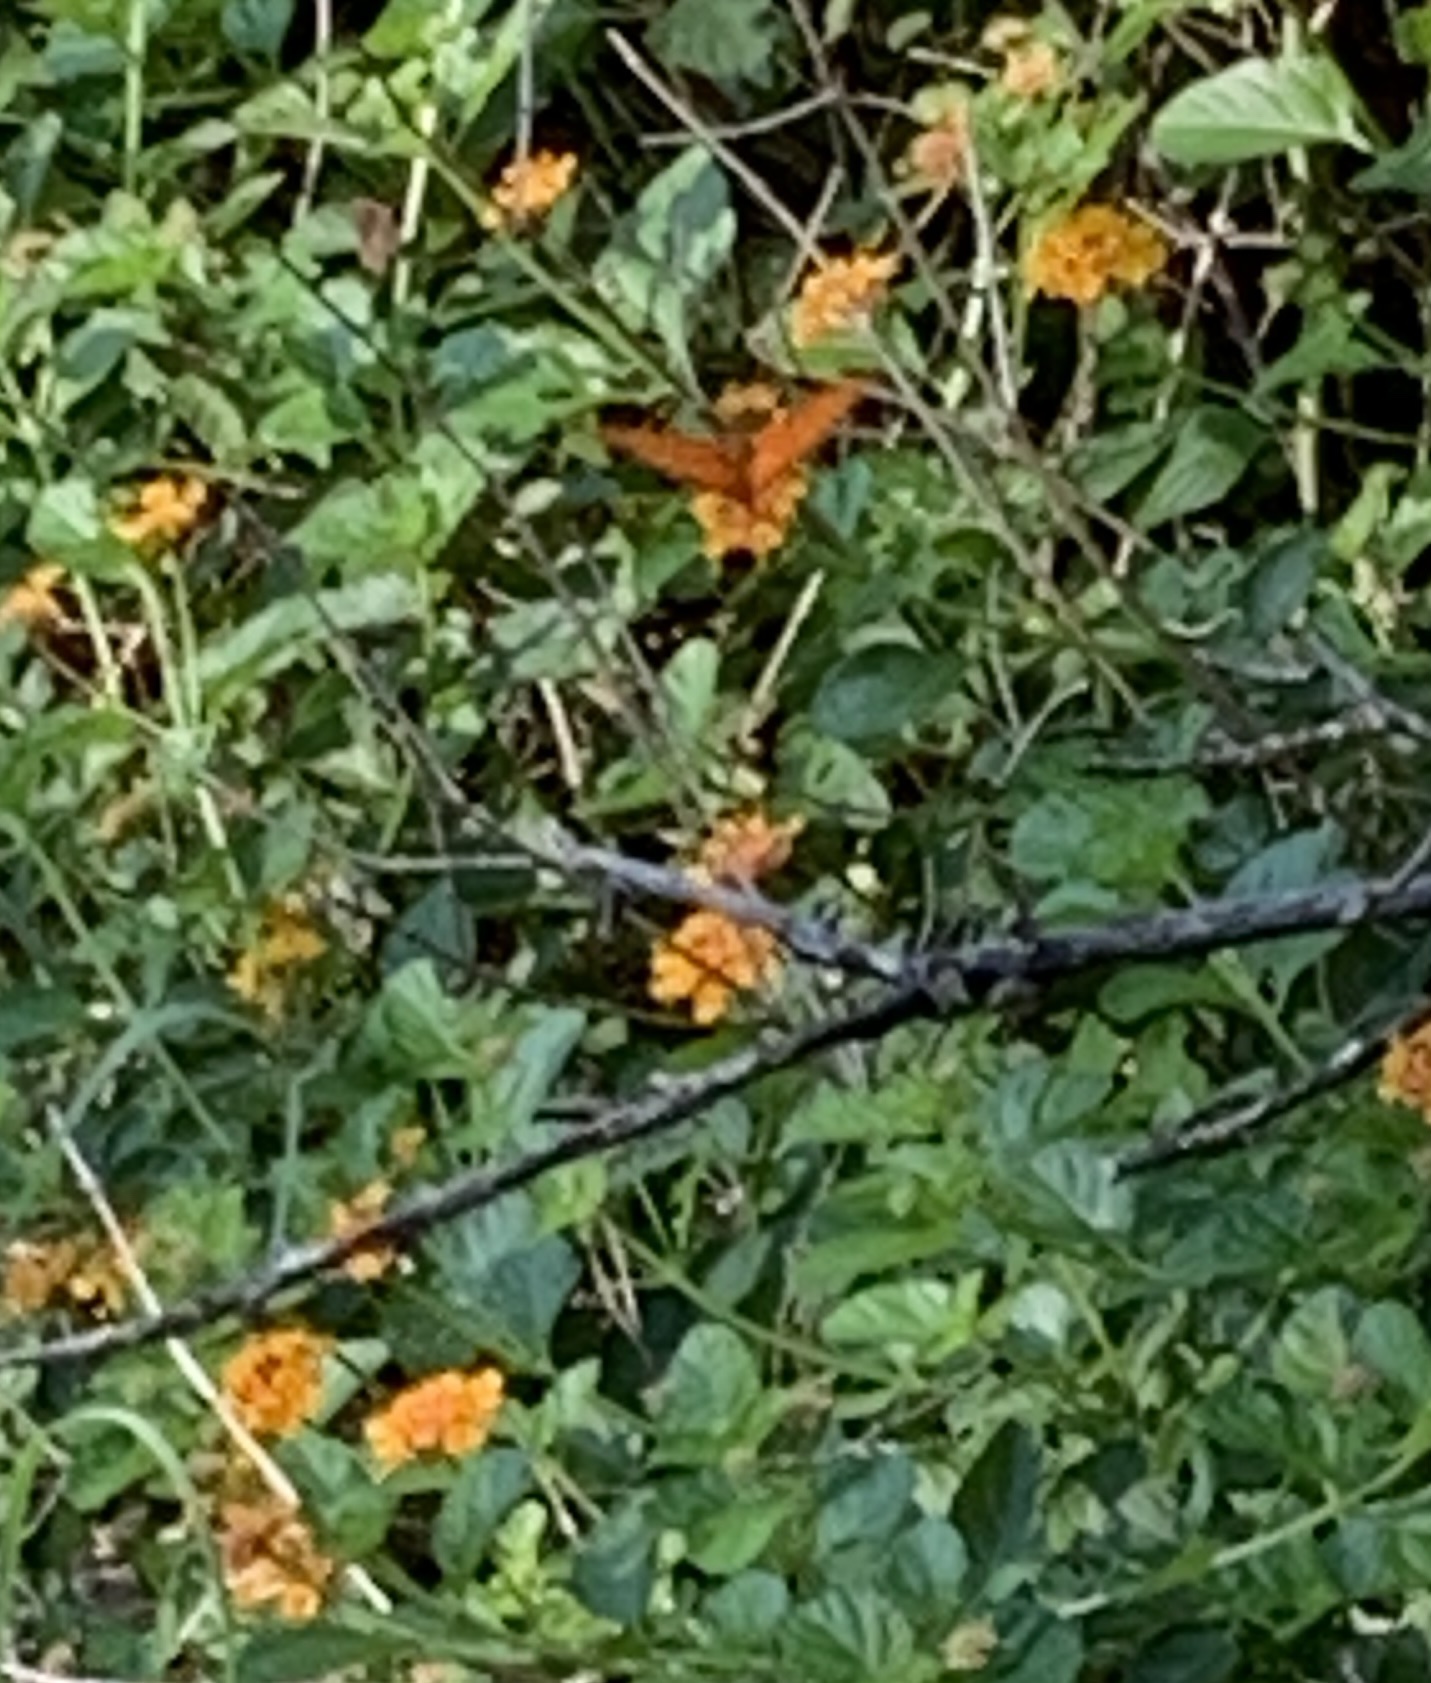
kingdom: Animalia
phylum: Arthropoda
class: Insecta
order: Lepidoptera
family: Nymphalidae
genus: Dione
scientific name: Dione vanillae
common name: Gulf fritillary
